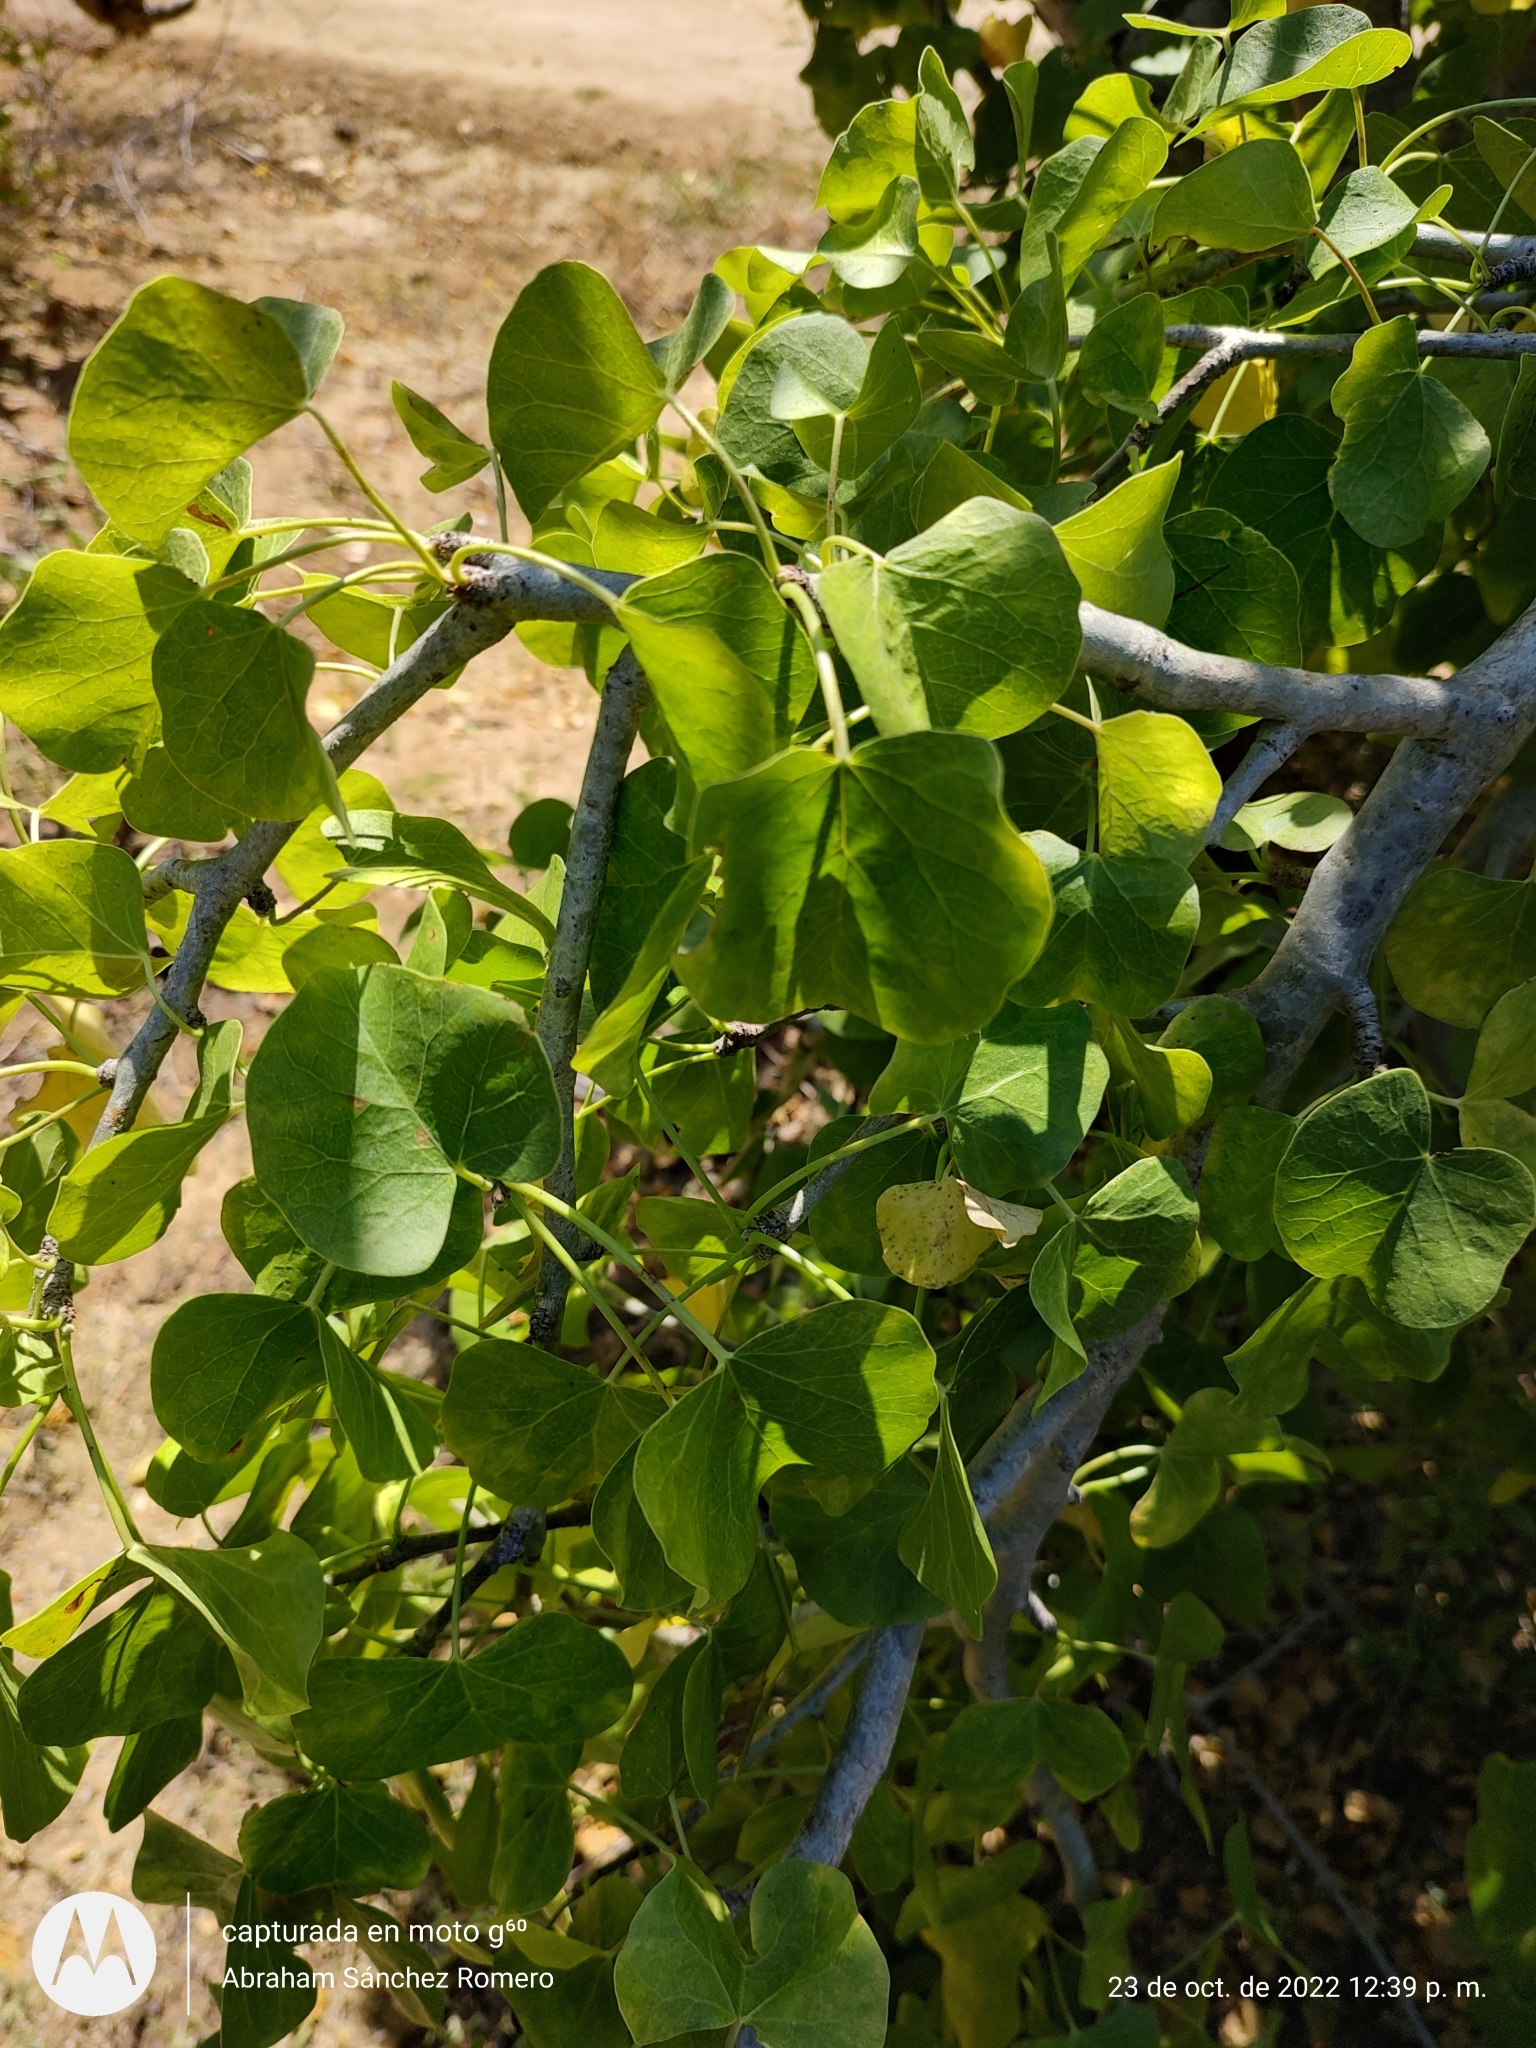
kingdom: Plantae
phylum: Tracheophyta
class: Magnoliopsida
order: Malpighiales
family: Euphorbiaceae
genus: Jatropha
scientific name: Jatropha cinerea
